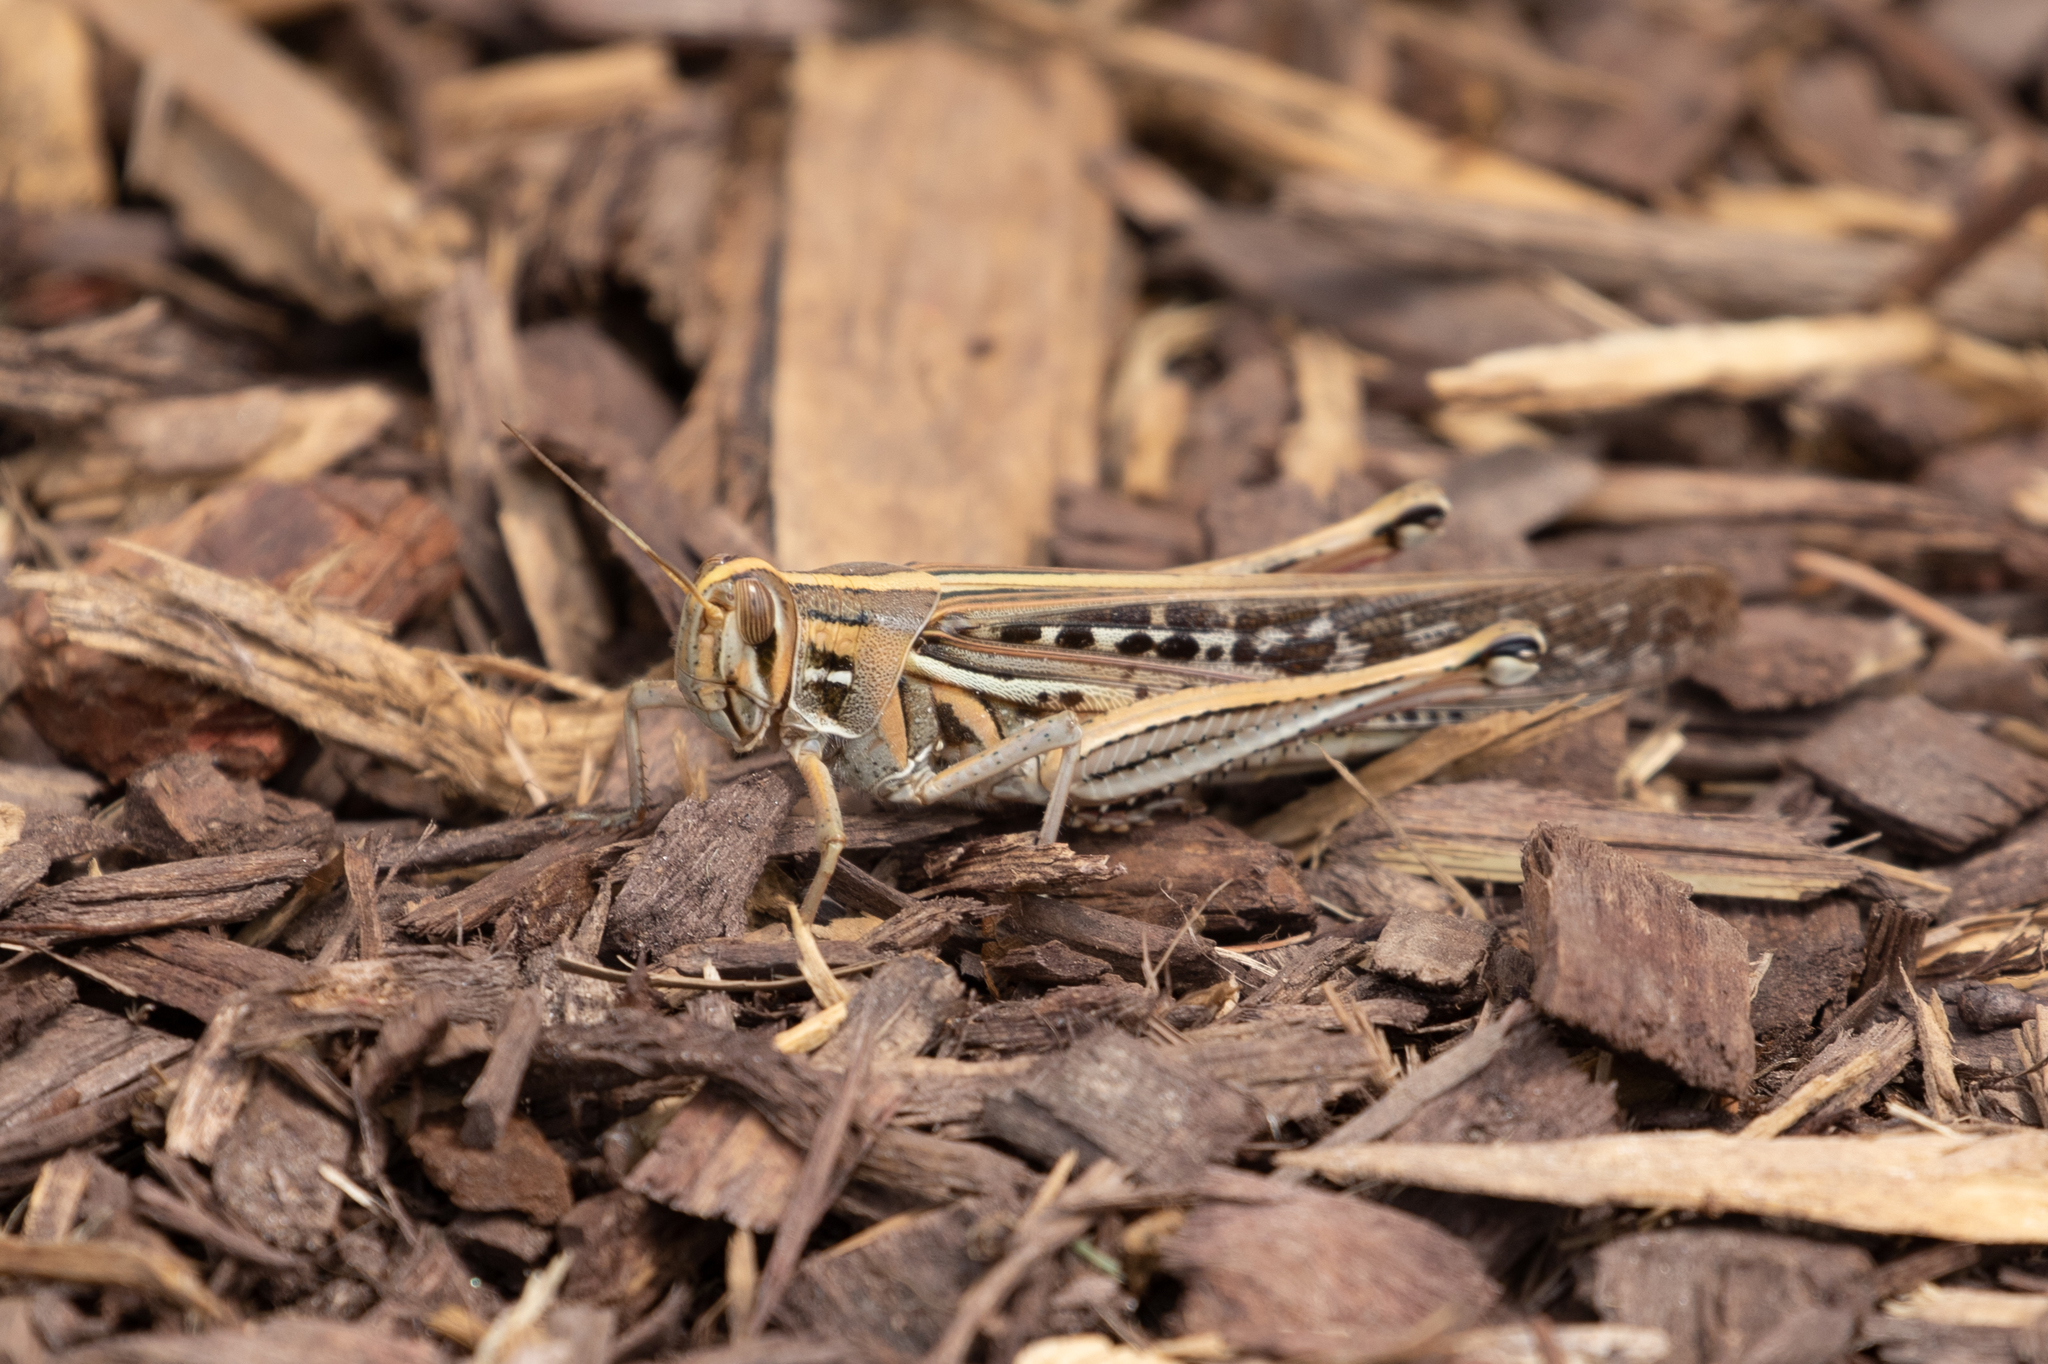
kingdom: Animalia
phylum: Arthropoda
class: Insecta
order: Orthoptera
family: Acrididae
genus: Schistocerca
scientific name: Schistocerca americana
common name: American bird locust
